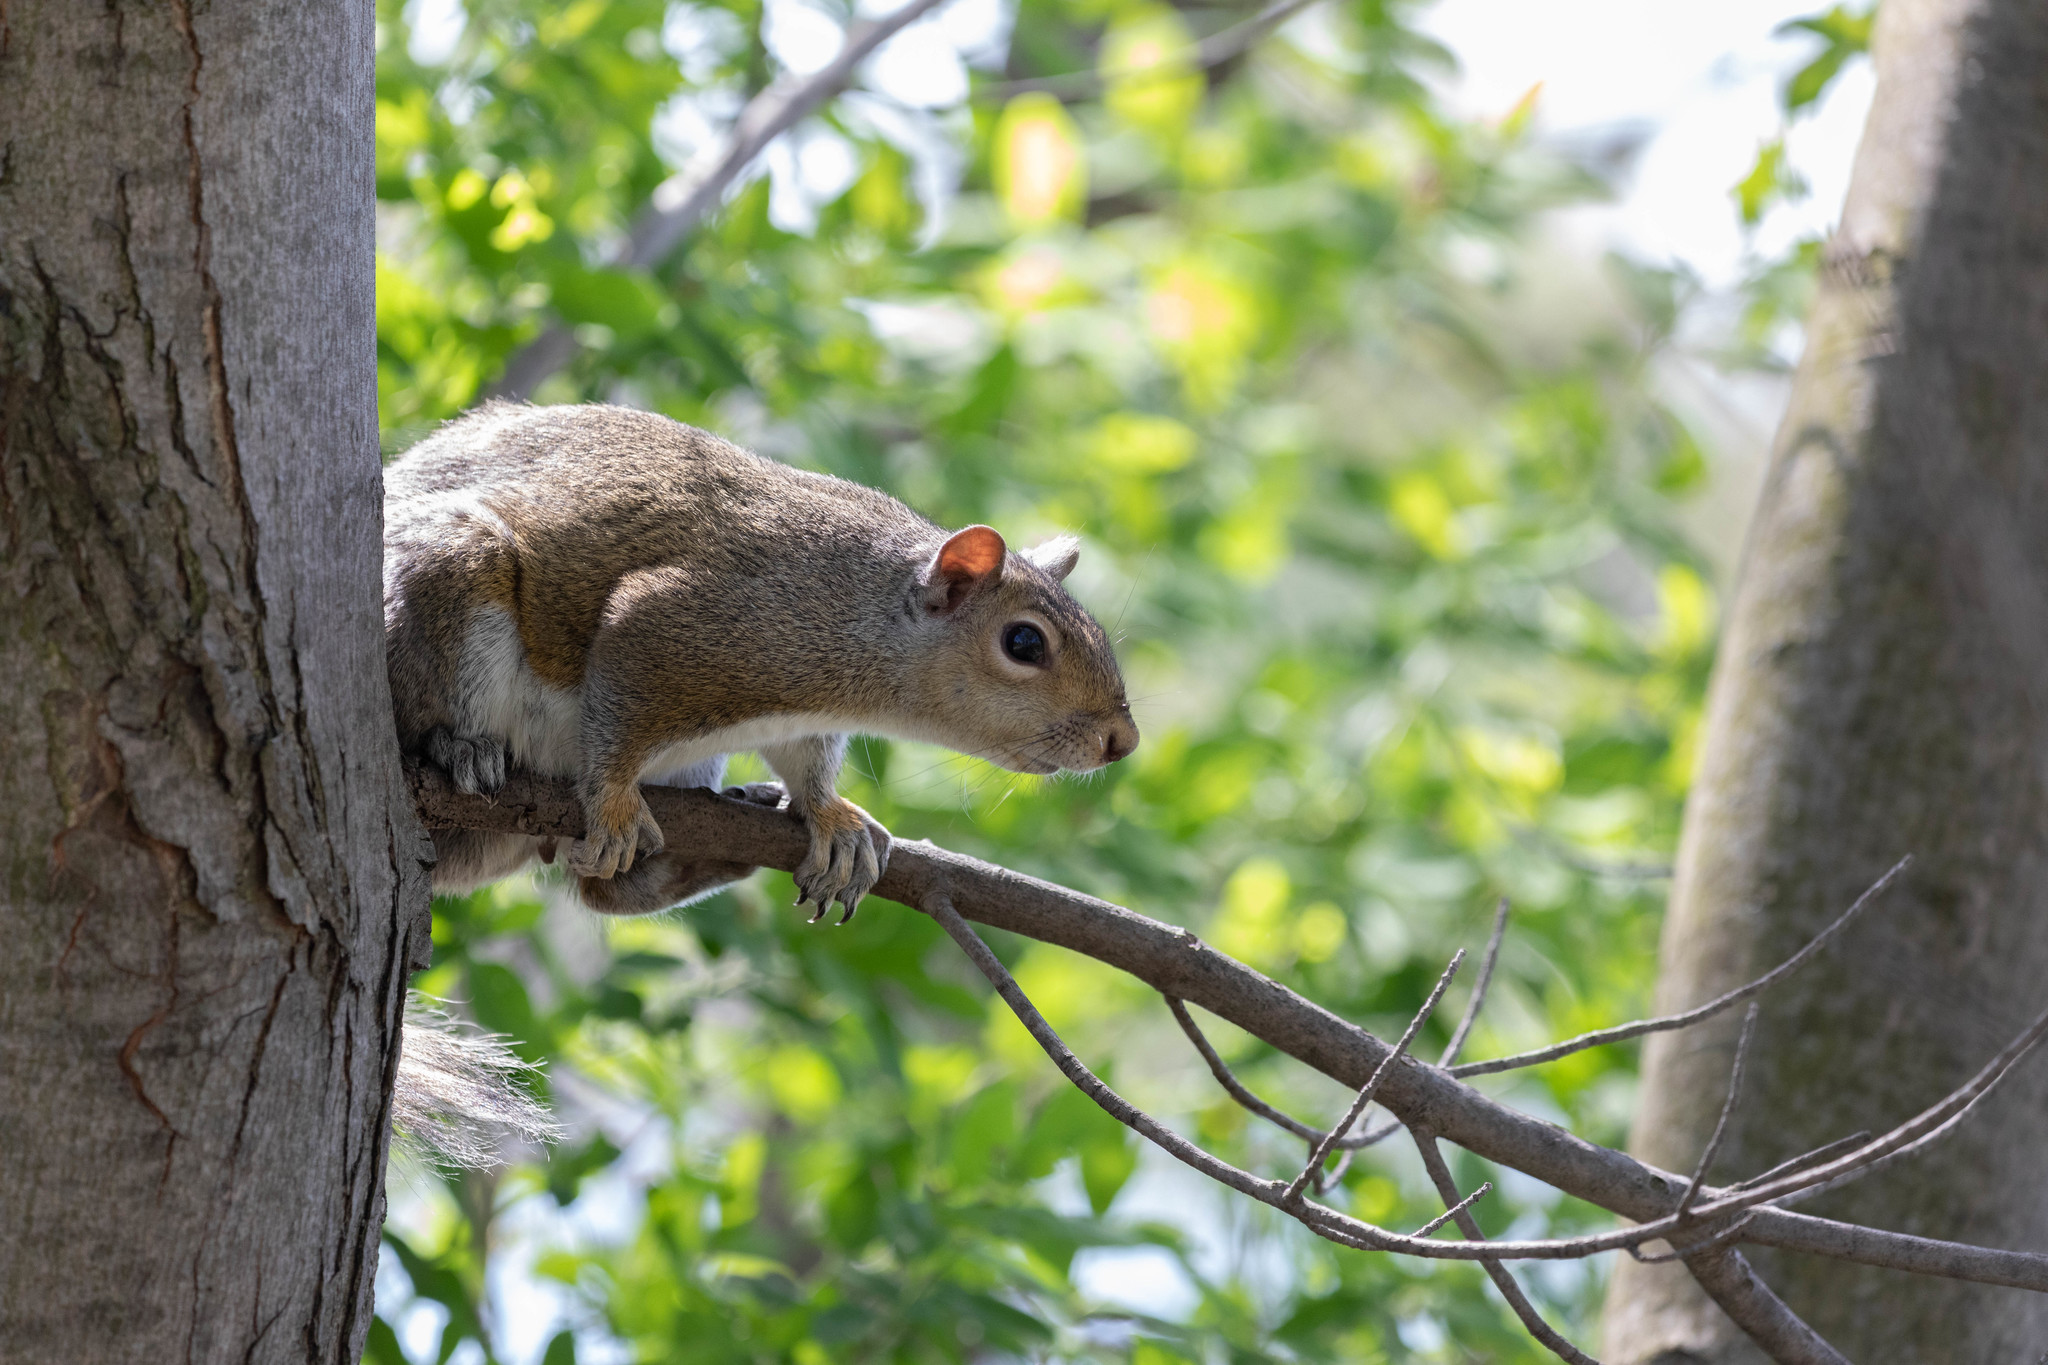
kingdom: Animalia
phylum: Chordata
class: Mammalia
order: Rodentia
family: Sciuridae
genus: Sciurus
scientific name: Sciurus carolinensis
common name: Eastern gray squirrel
